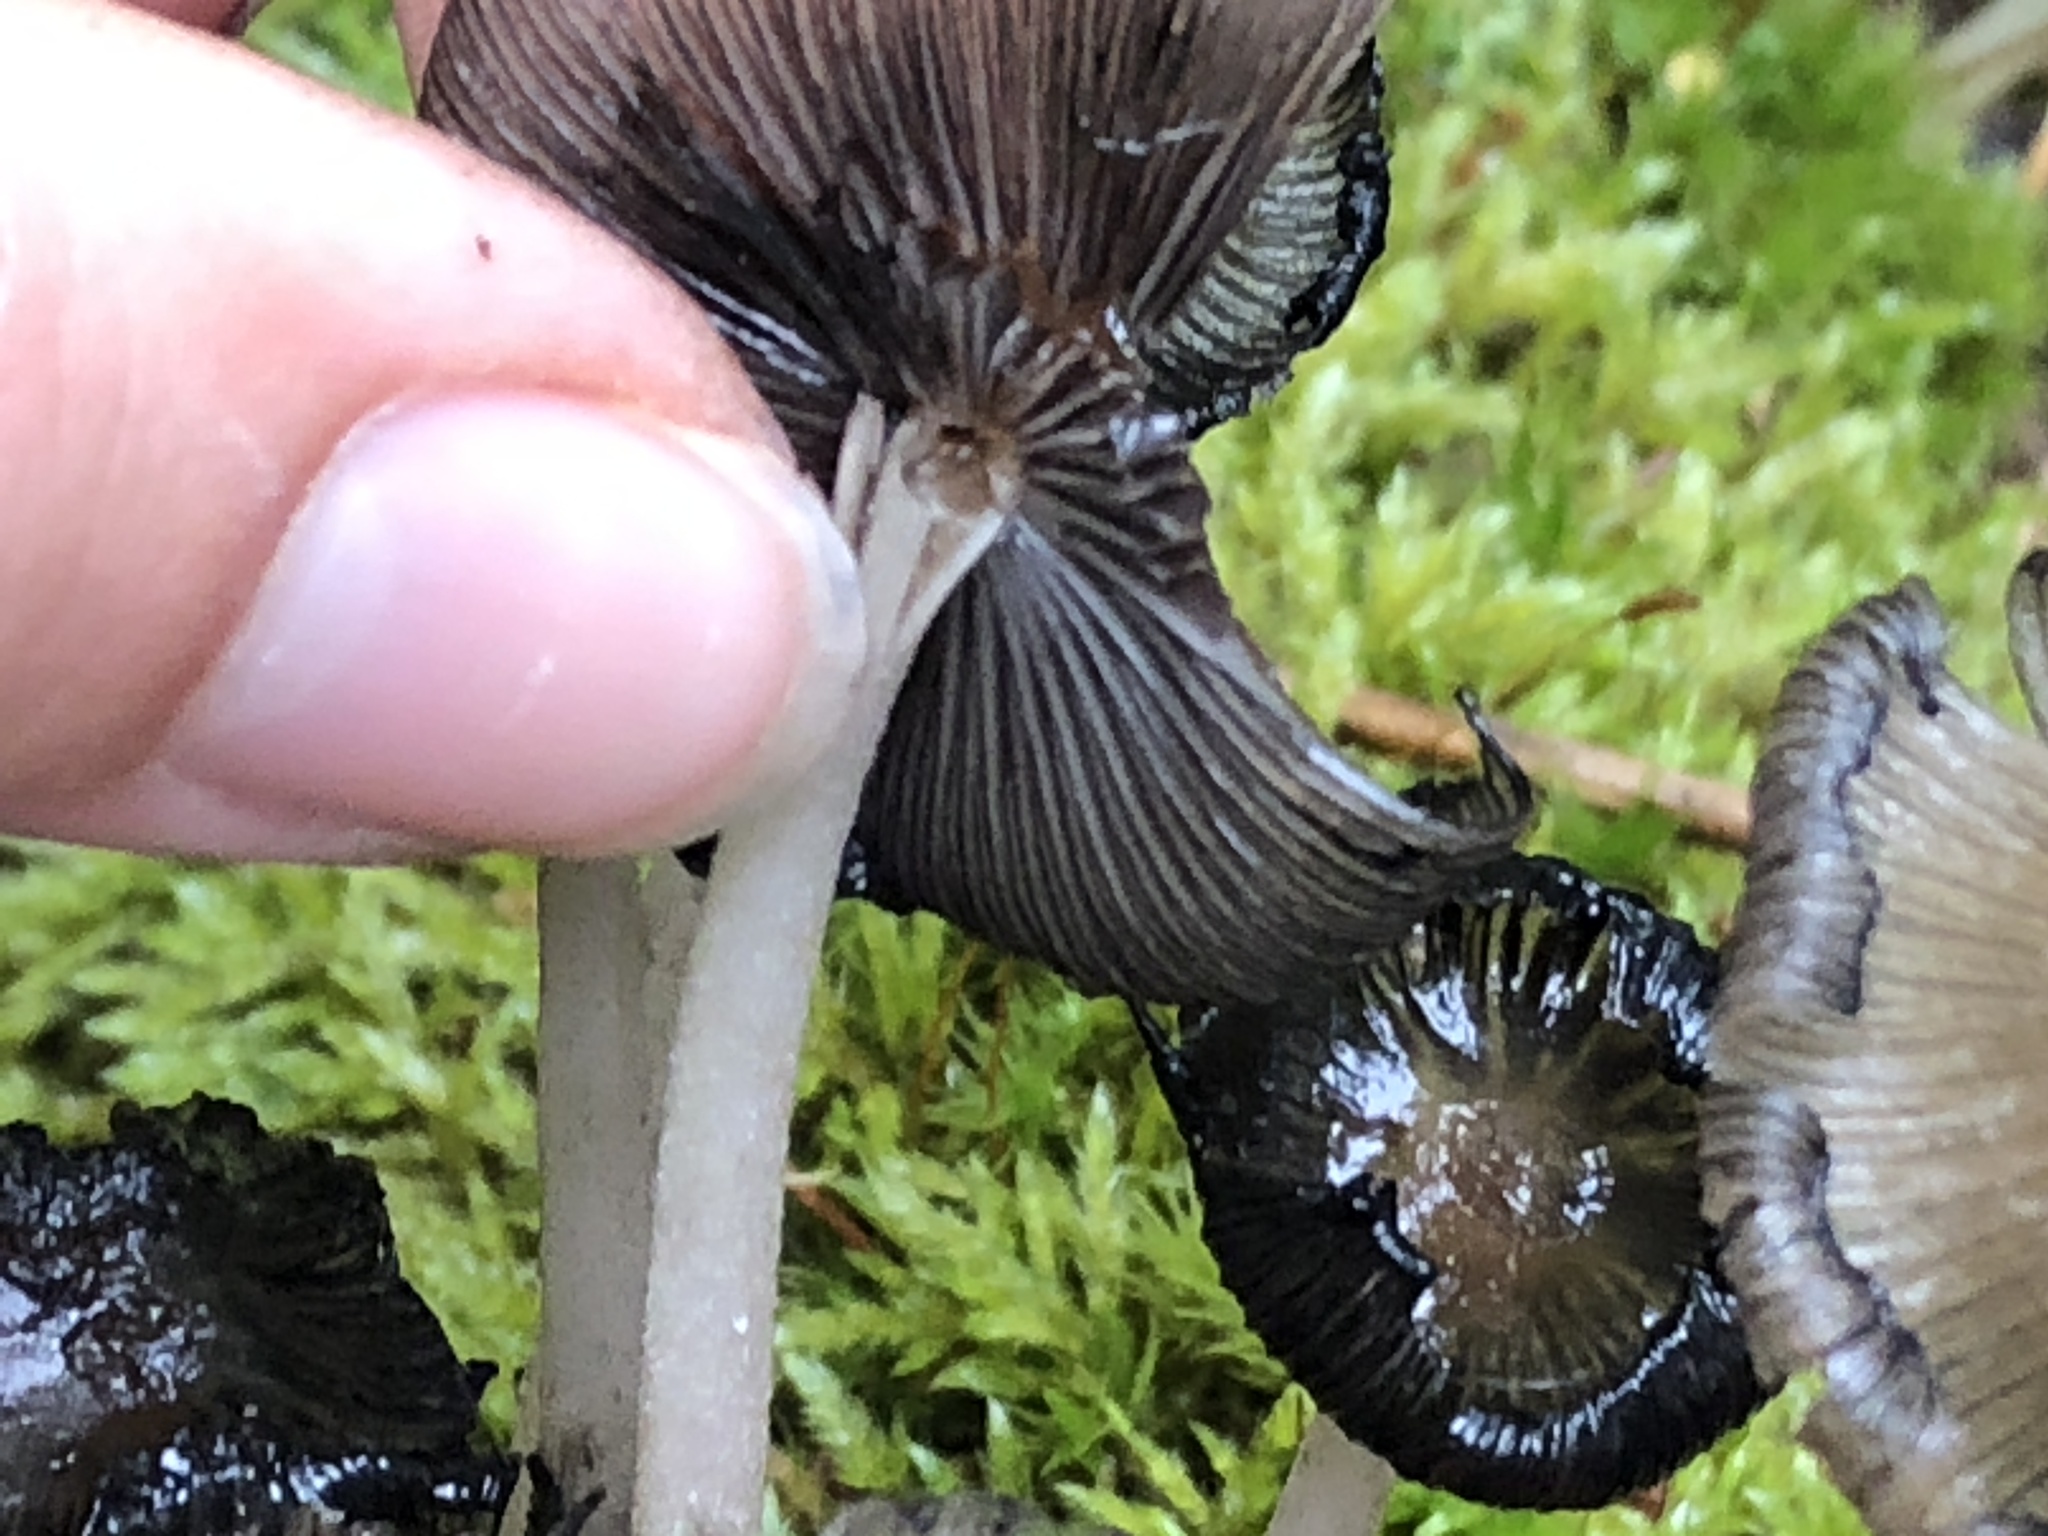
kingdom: Fungi
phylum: Basidiomycota
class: Agaricomycetes
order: Agaricales
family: Psathyrellaceae
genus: Coprinellus
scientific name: Coprinellus micaceus
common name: Glistening ink-cap
